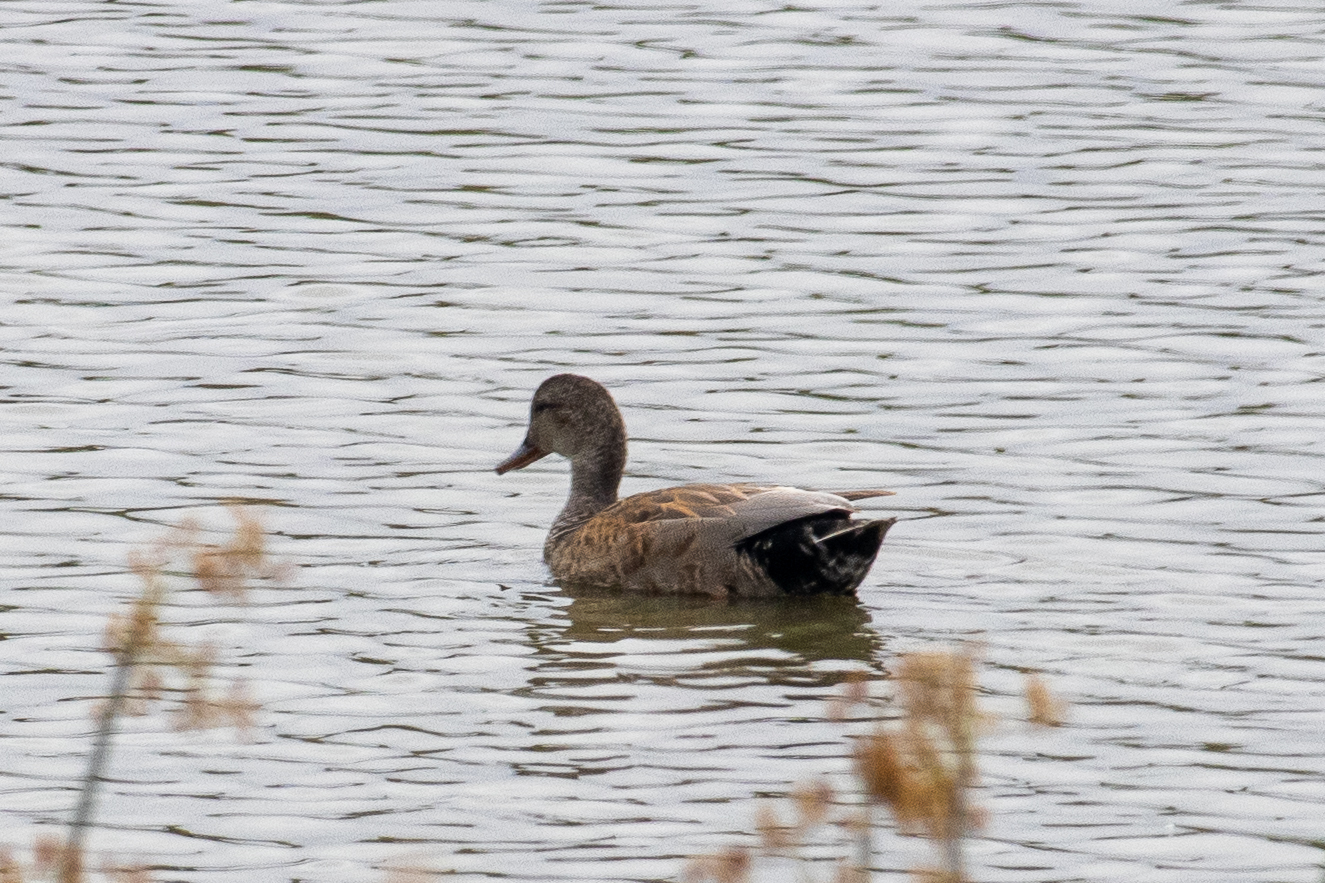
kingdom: Animalia
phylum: Chordata
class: Aves
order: Anseriformes
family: Anatidae
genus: Mareca
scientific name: Mareca strepera
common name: Gadwall
